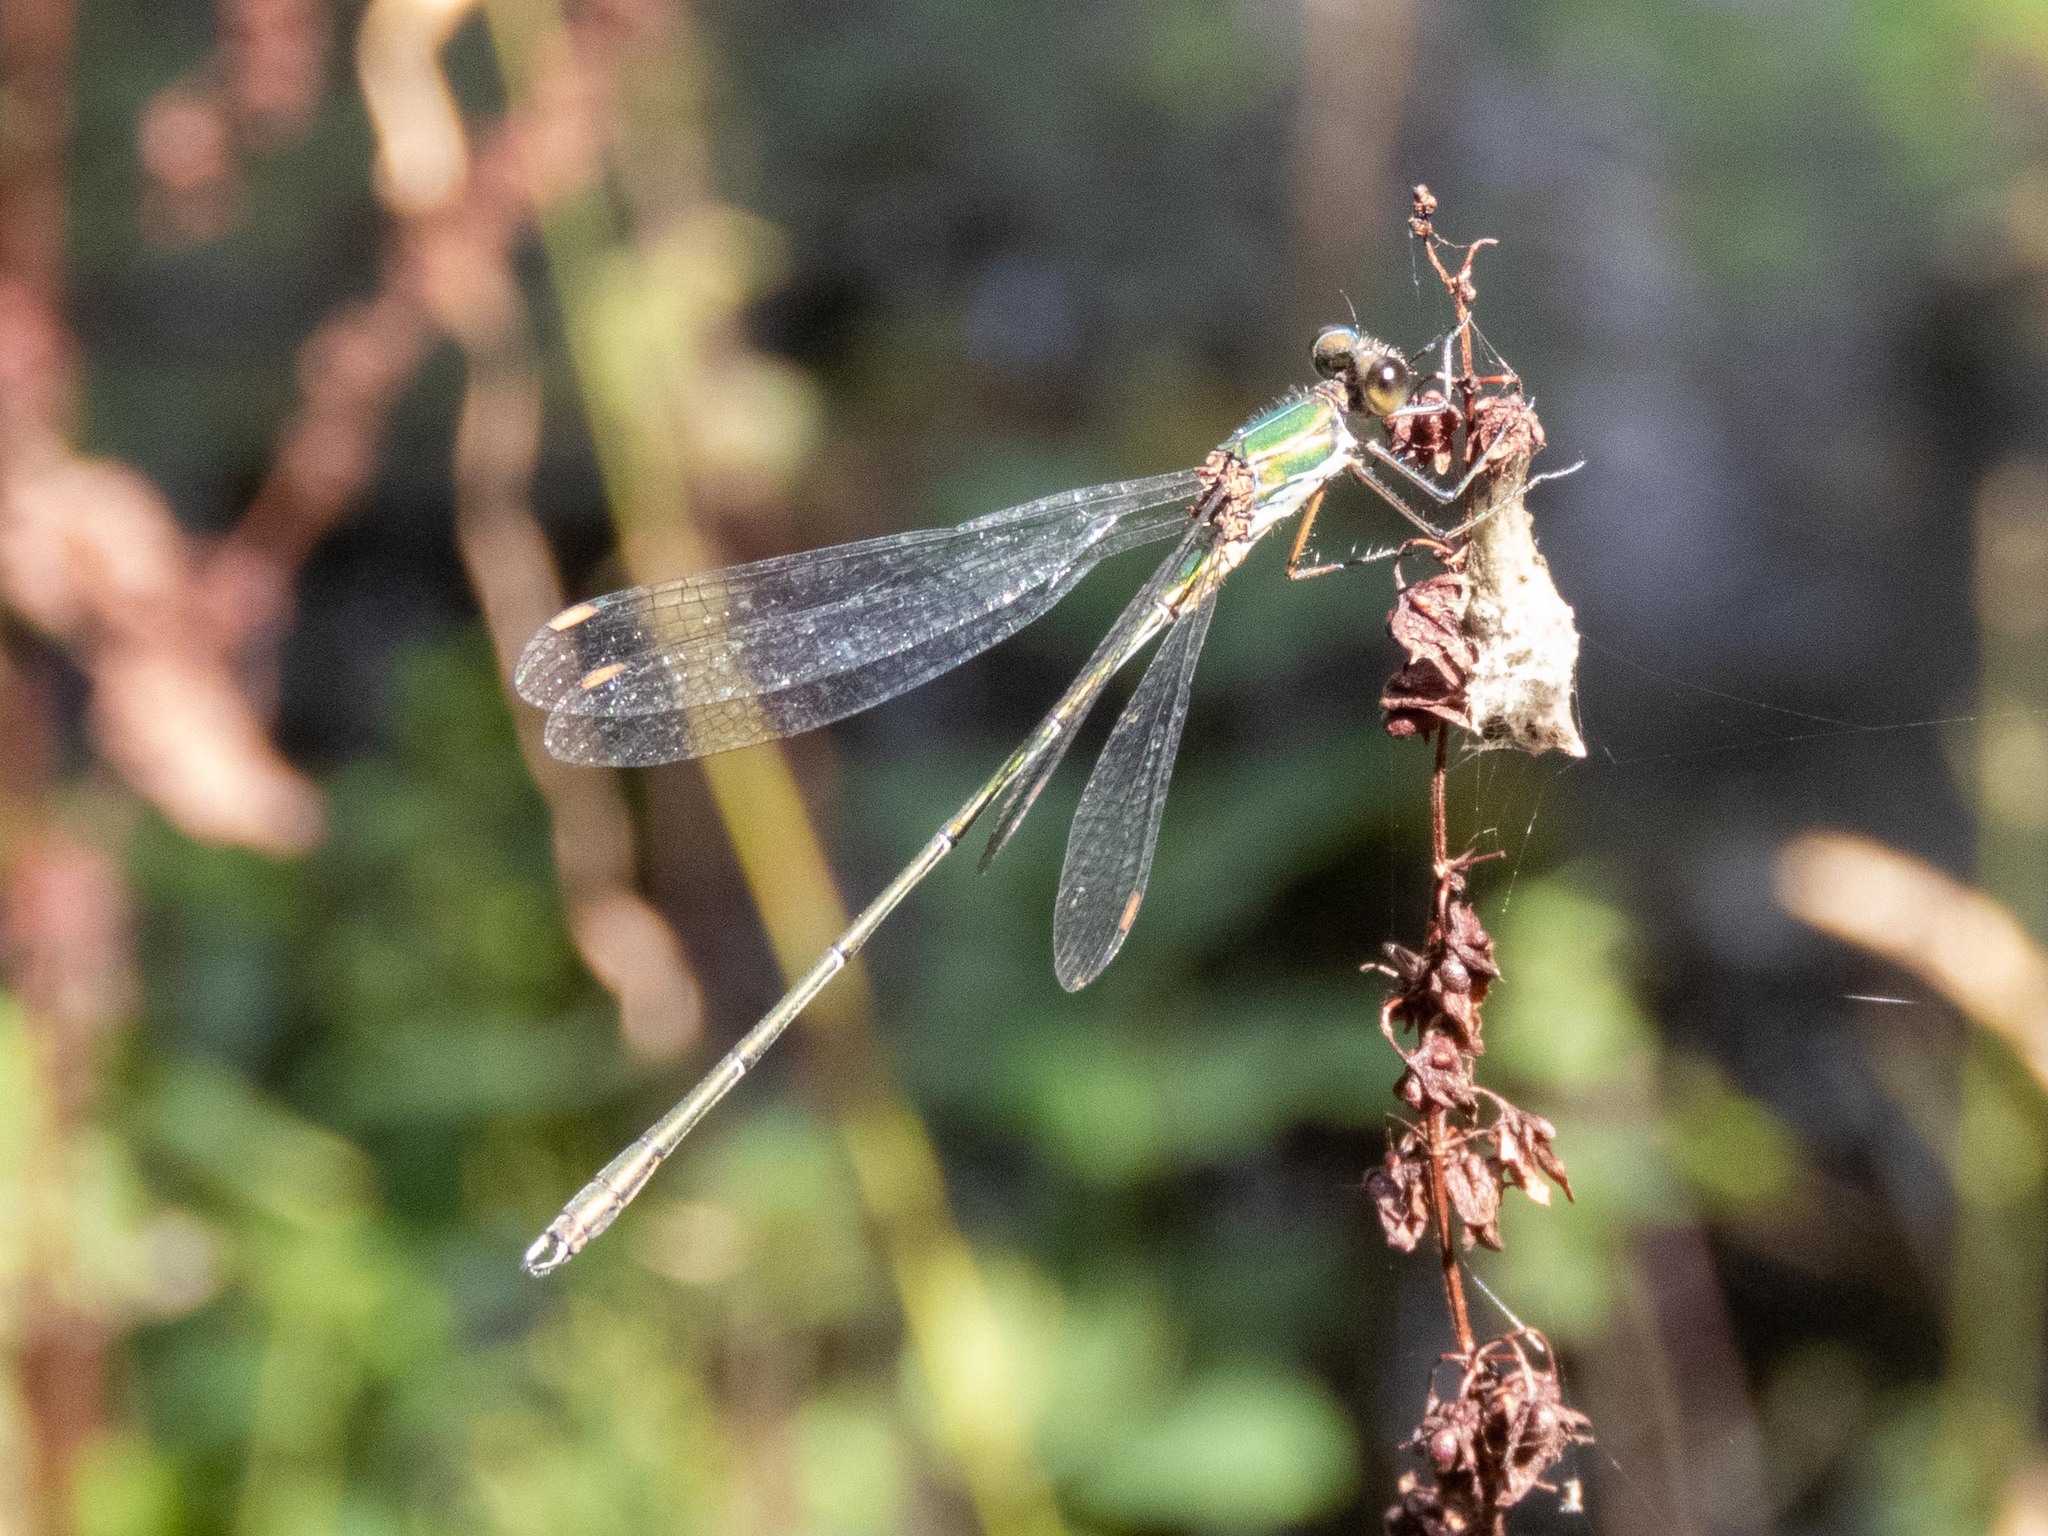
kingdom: Animalia
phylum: Arthropoda
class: Insecta
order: Odonata
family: Lestidae
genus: Chalcolestes
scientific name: Chalcolestes viridis
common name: Green emerald damselfly
